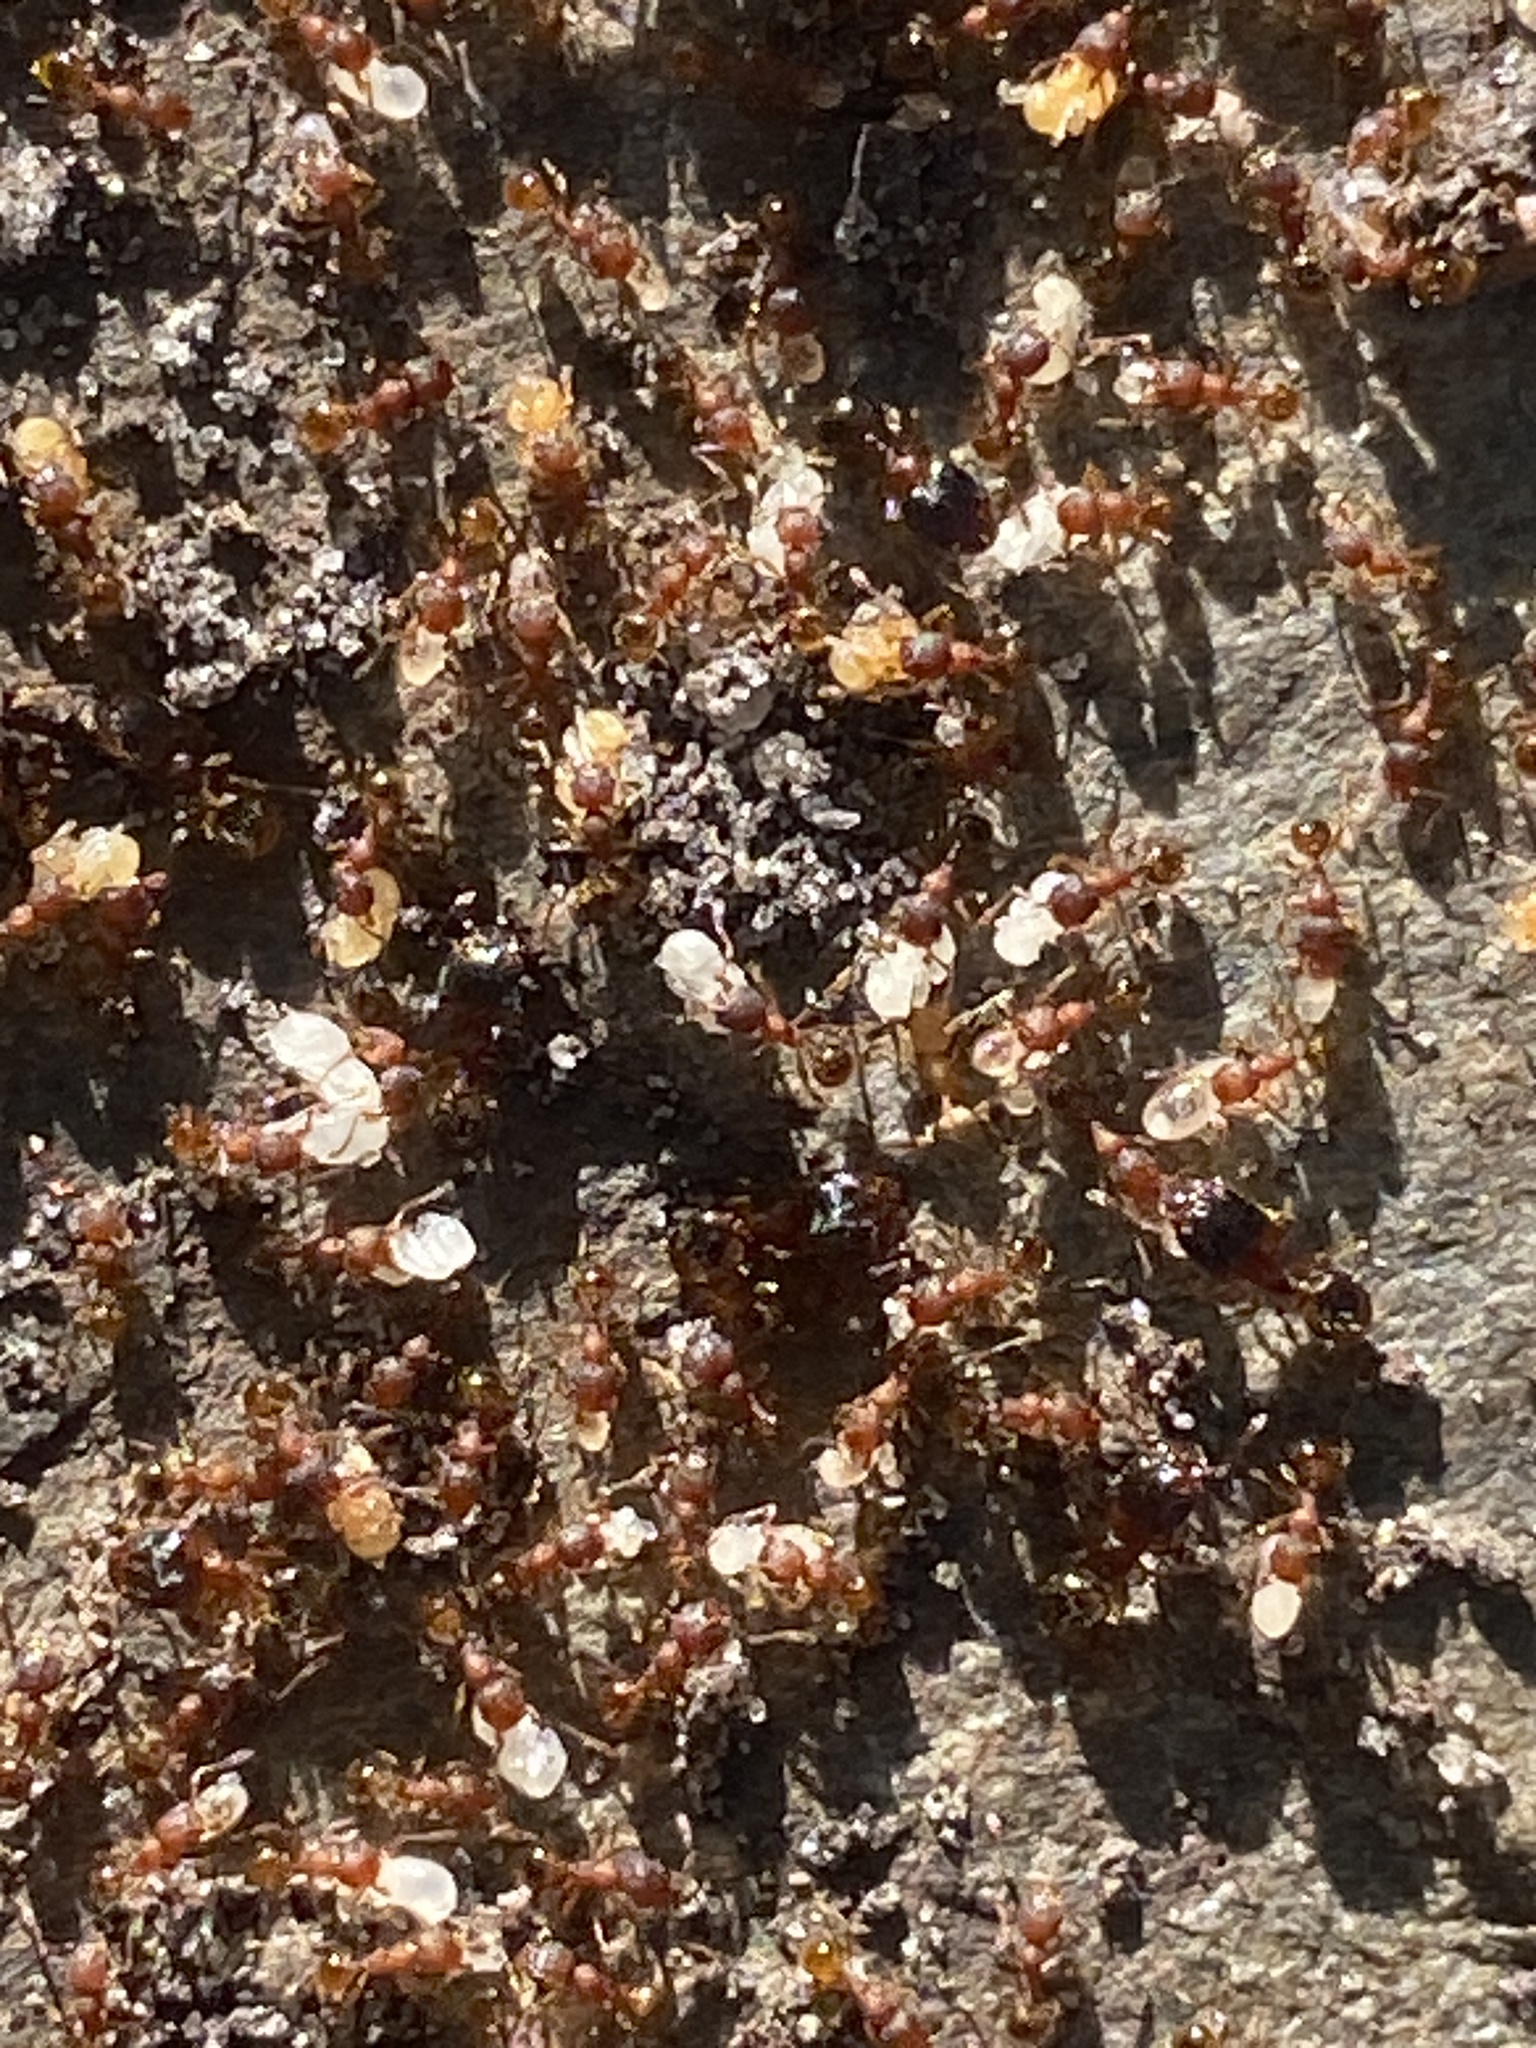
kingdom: Animalia
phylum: Arthropoda
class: Insecta
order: Hymenoptera
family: Formicidae
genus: Pheidole
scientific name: Pheidole navigans
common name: Navigating big-headed ant
